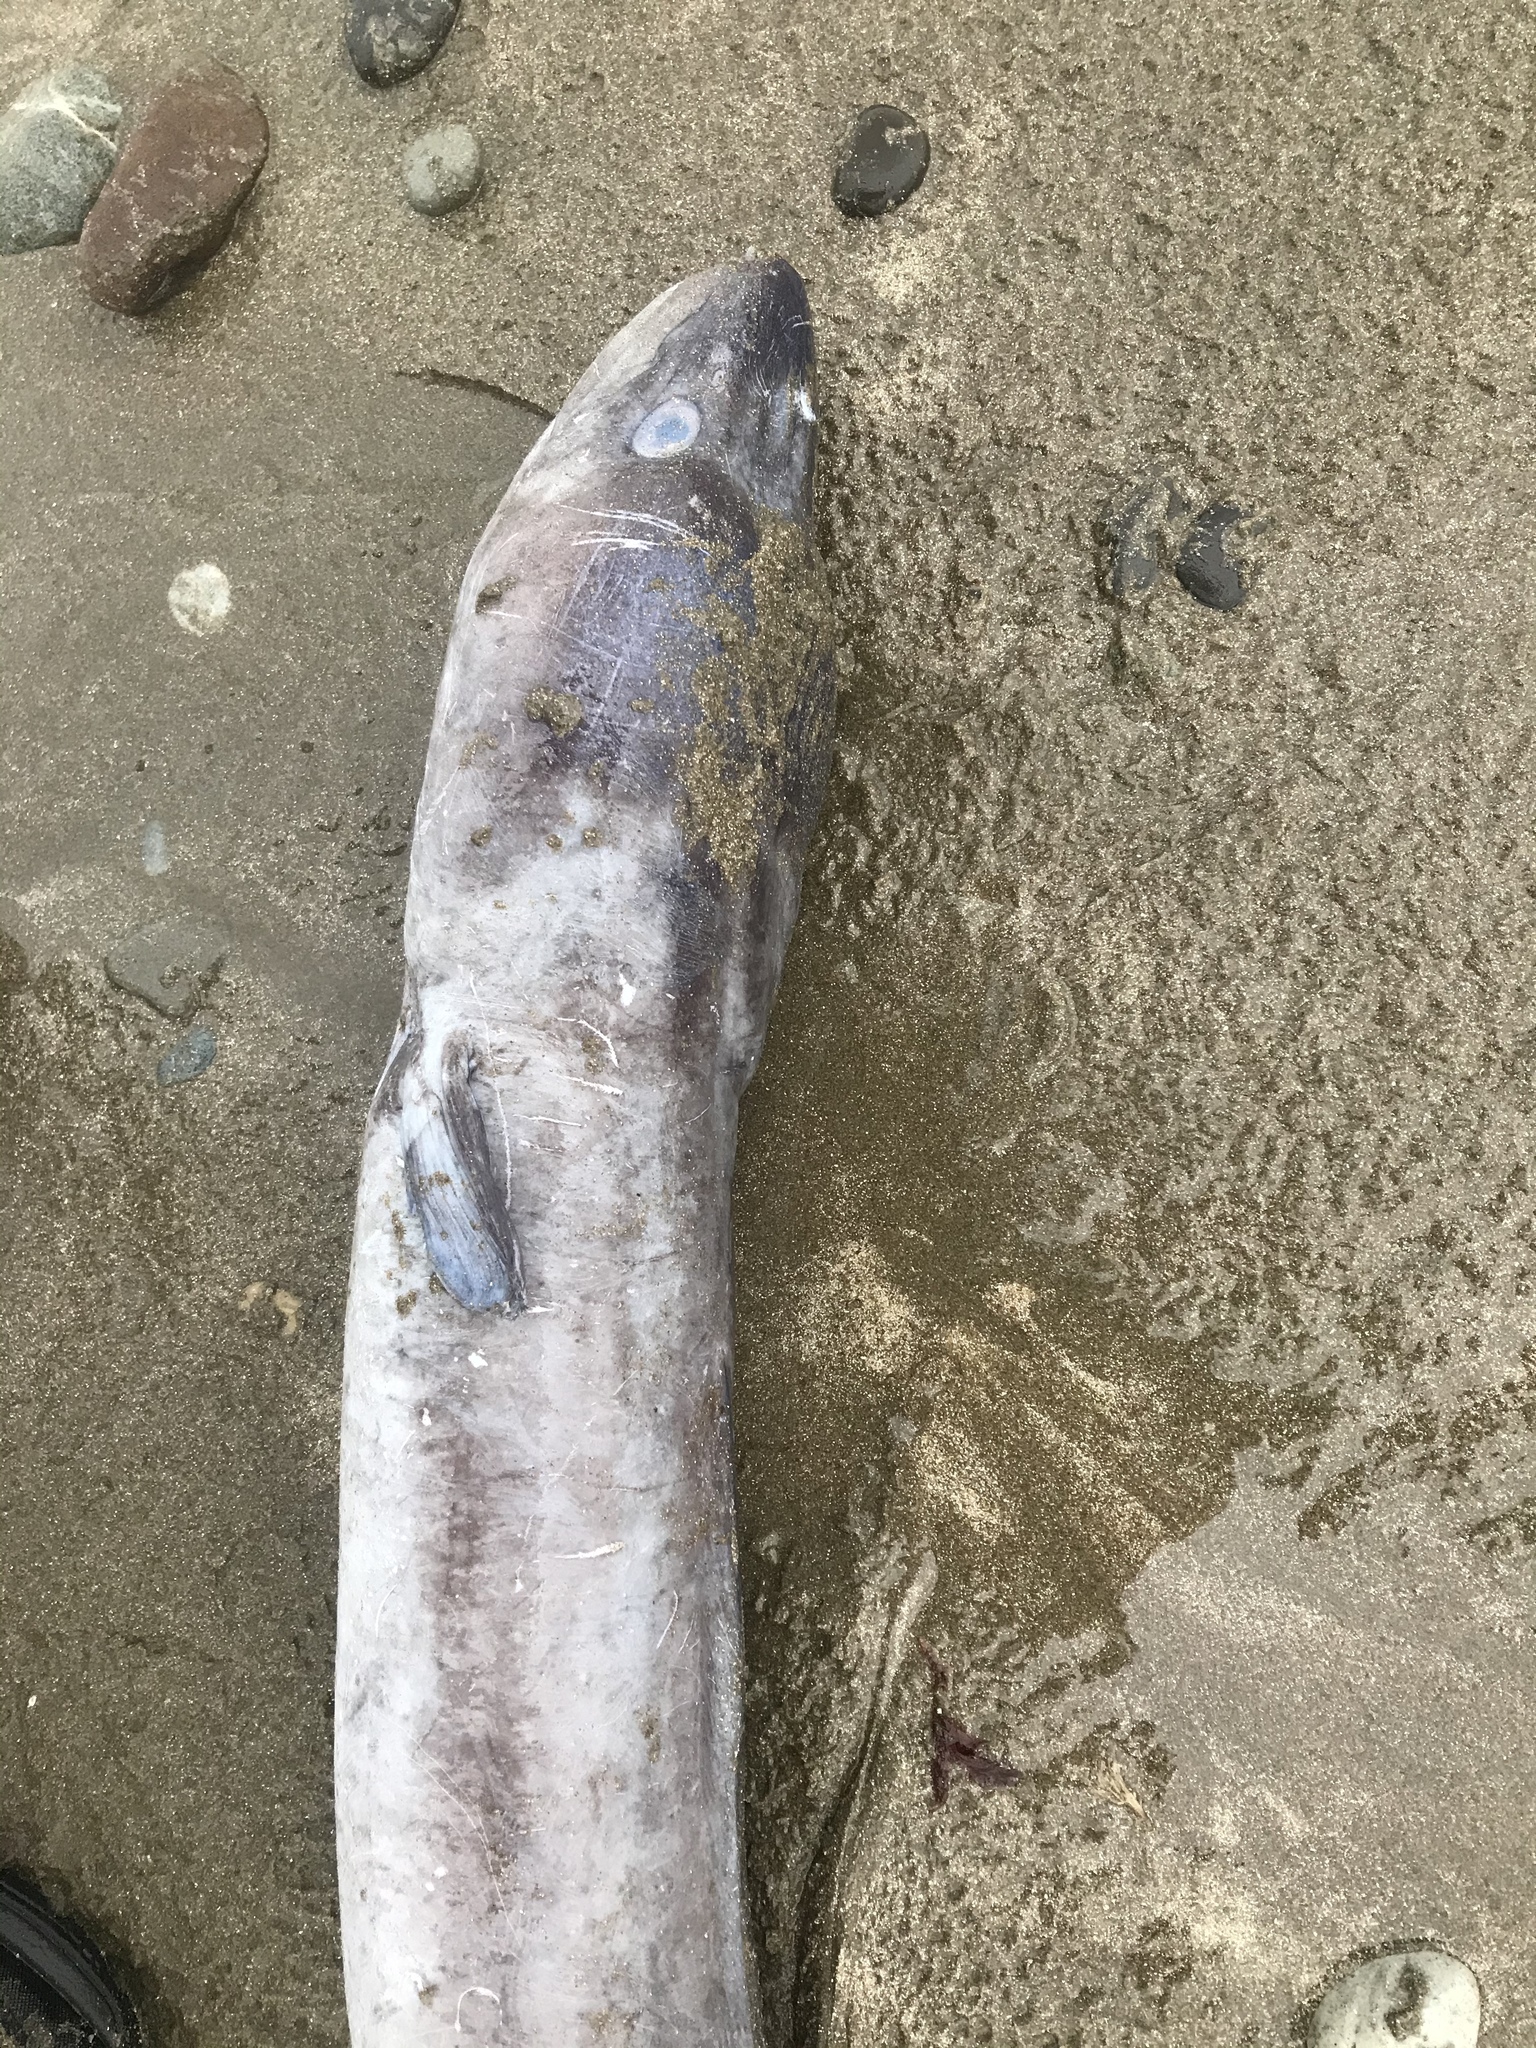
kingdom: Animalia
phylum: Chordata
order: Anguilliformes
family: Congridae
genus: Conger
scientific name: Conger verreauxi
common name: Conger eel
